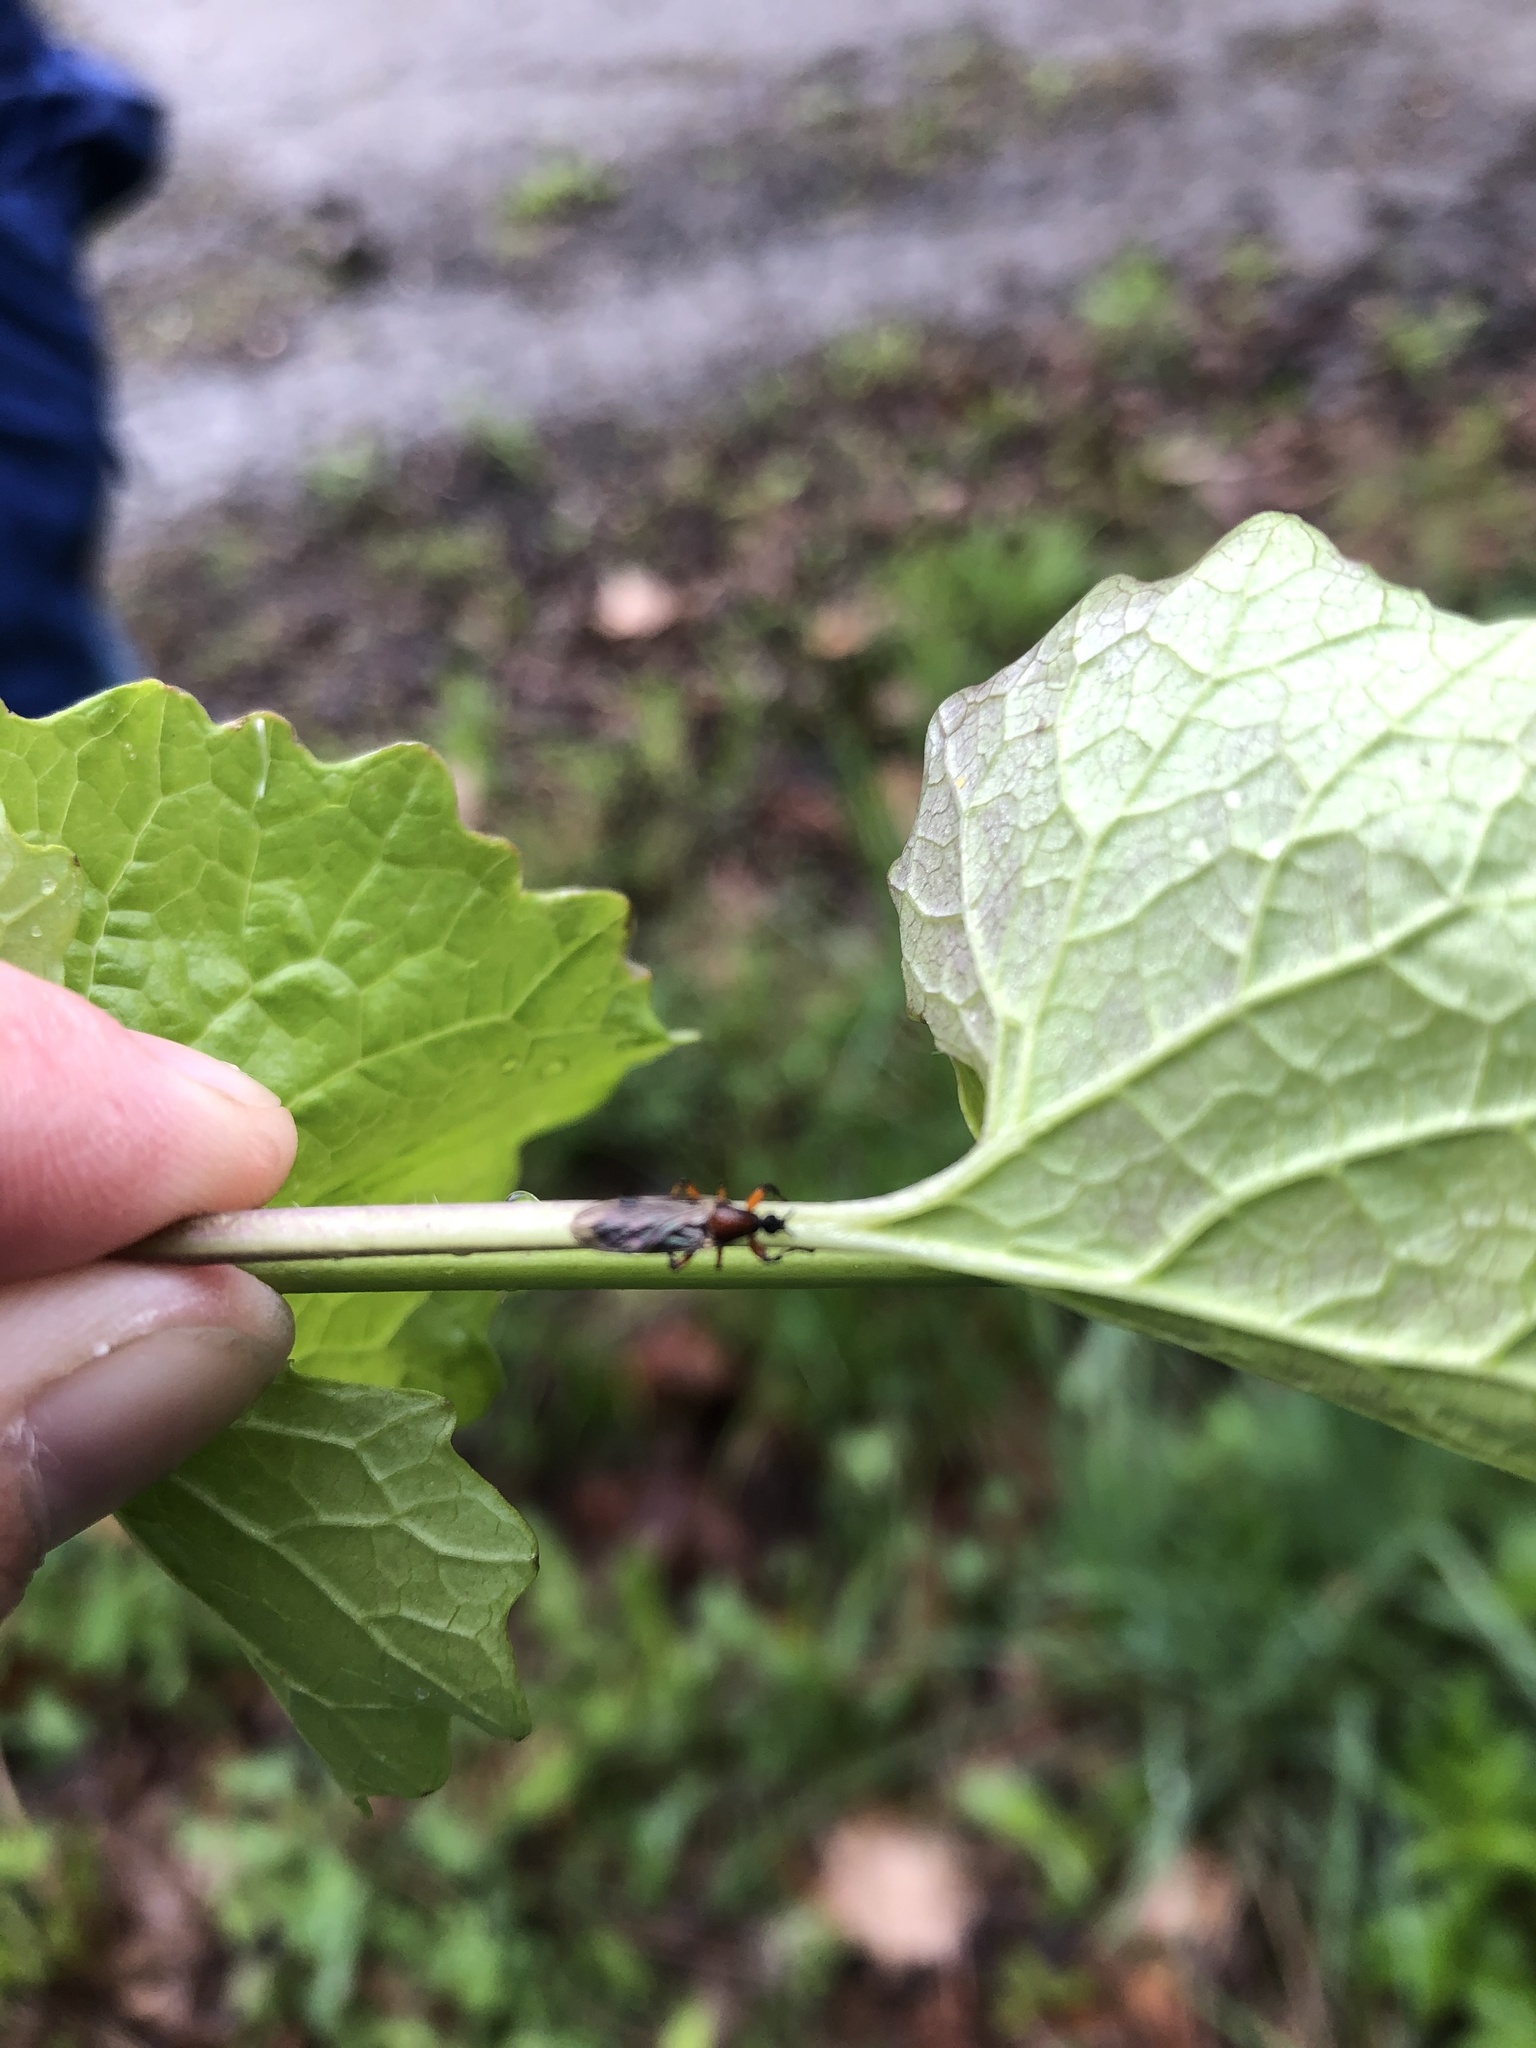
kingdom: Animalia
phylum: Arthropoda
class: Insecta
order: Diptera
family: Bibionidae
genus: Bibio
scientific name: Bibio
